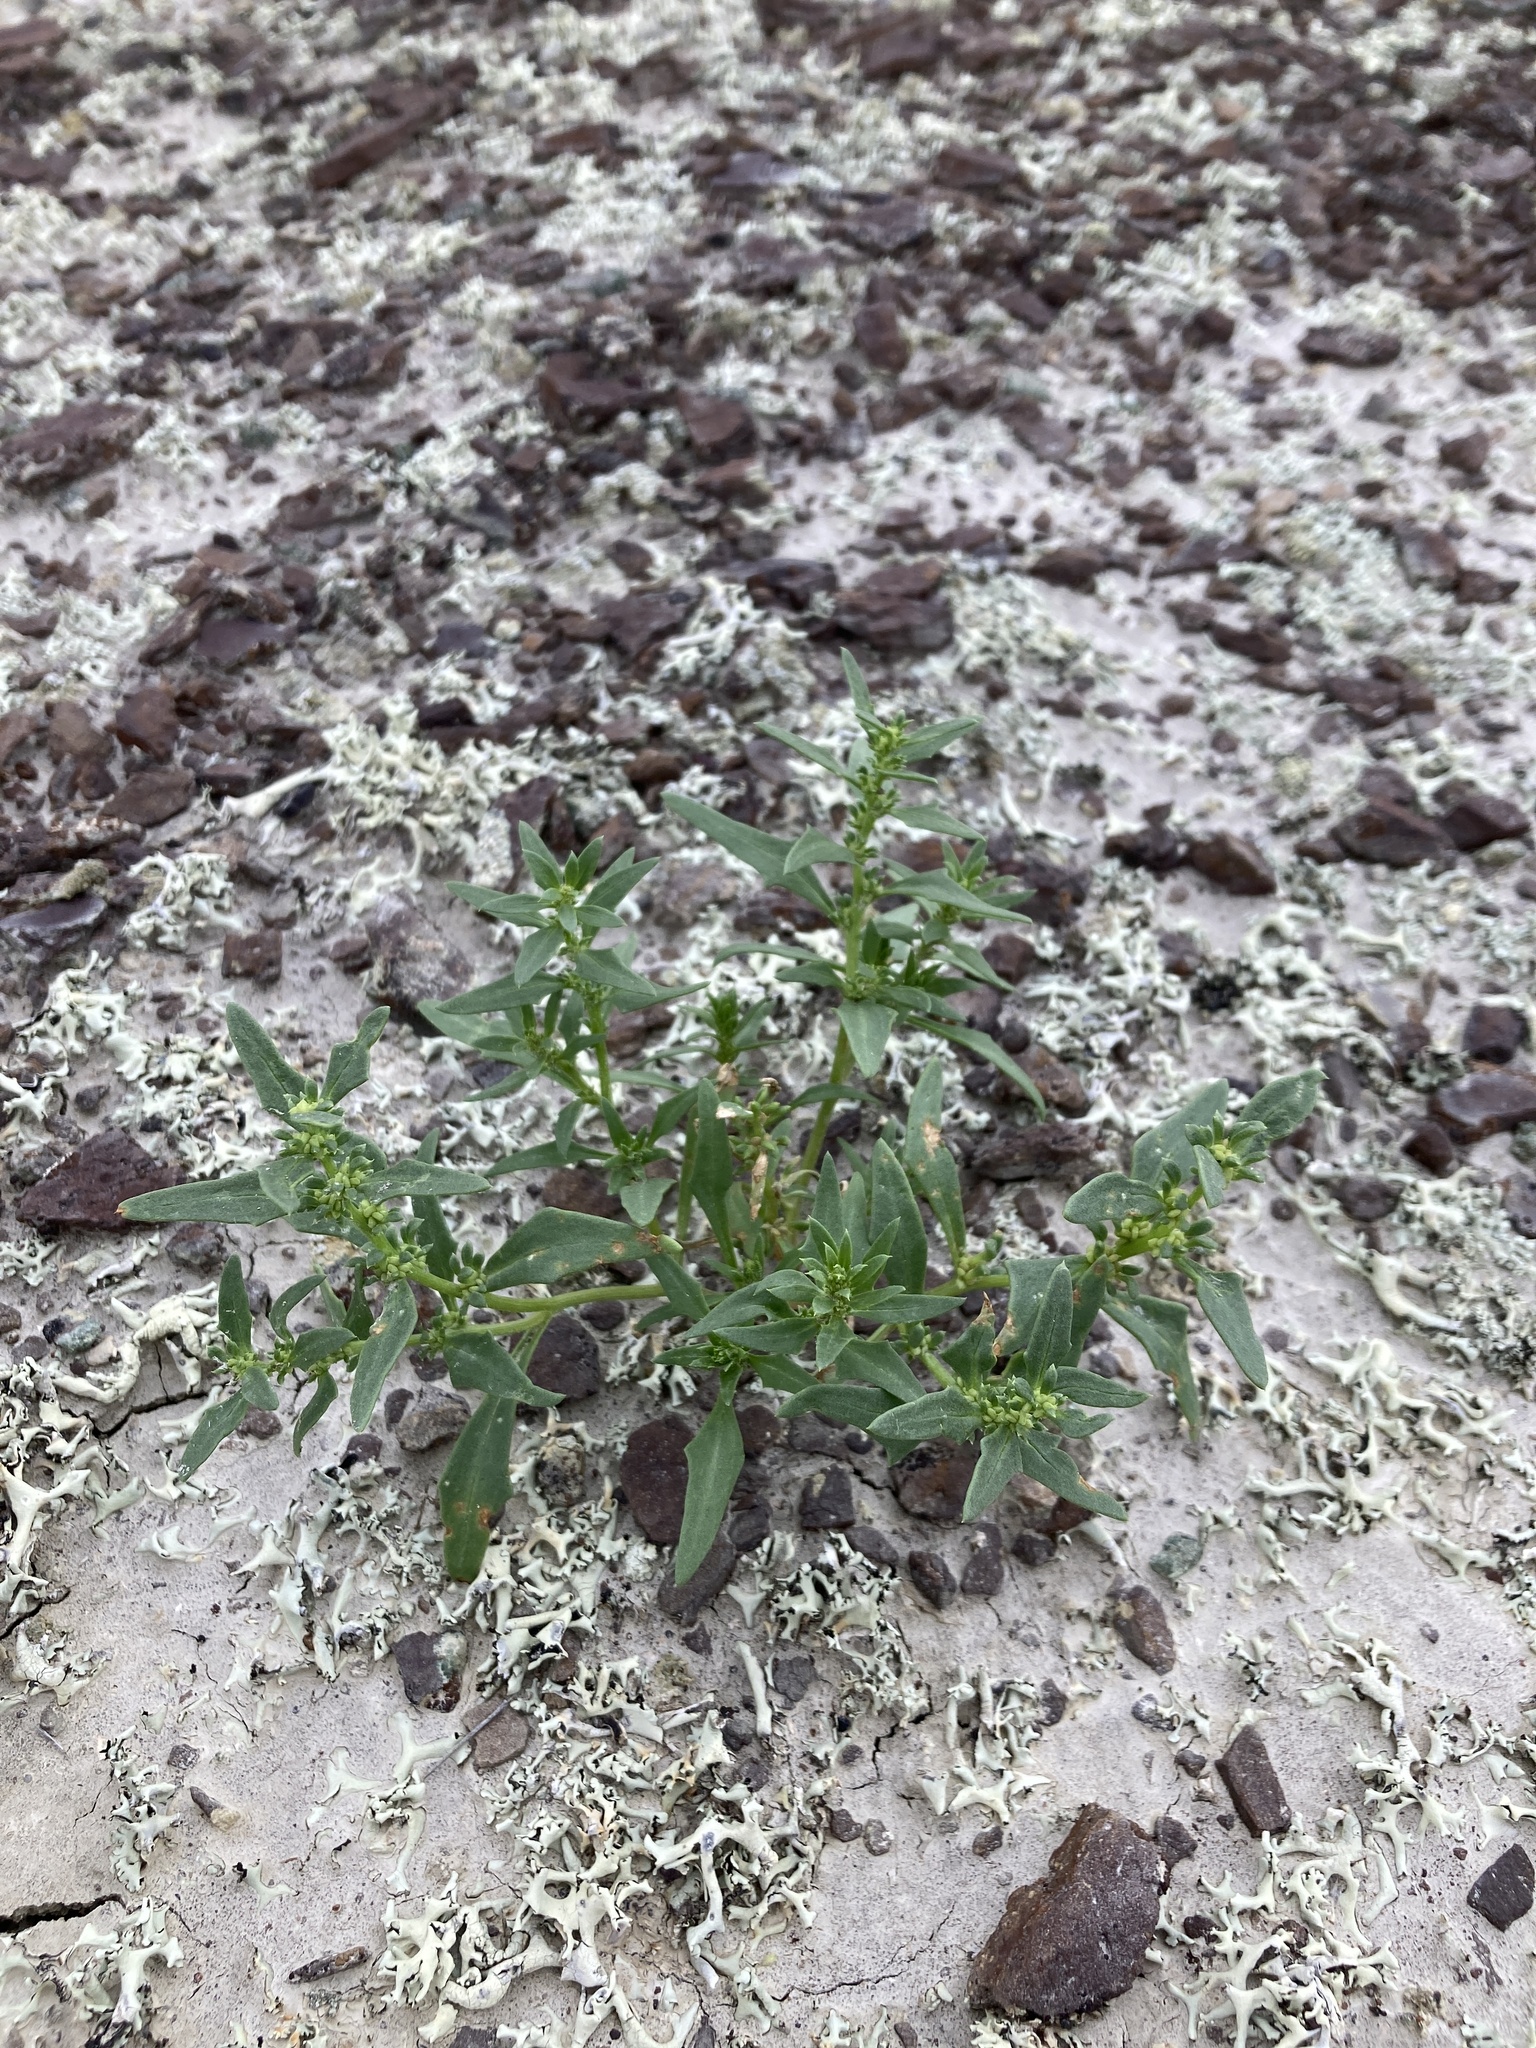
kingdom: Plantae
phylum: Tracheophyta
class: Magnoliopsida
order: Caryophyllales
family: Amaranthaceae
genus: Blitum
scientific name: Blitum nuttallianum
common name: Poverty-weed
